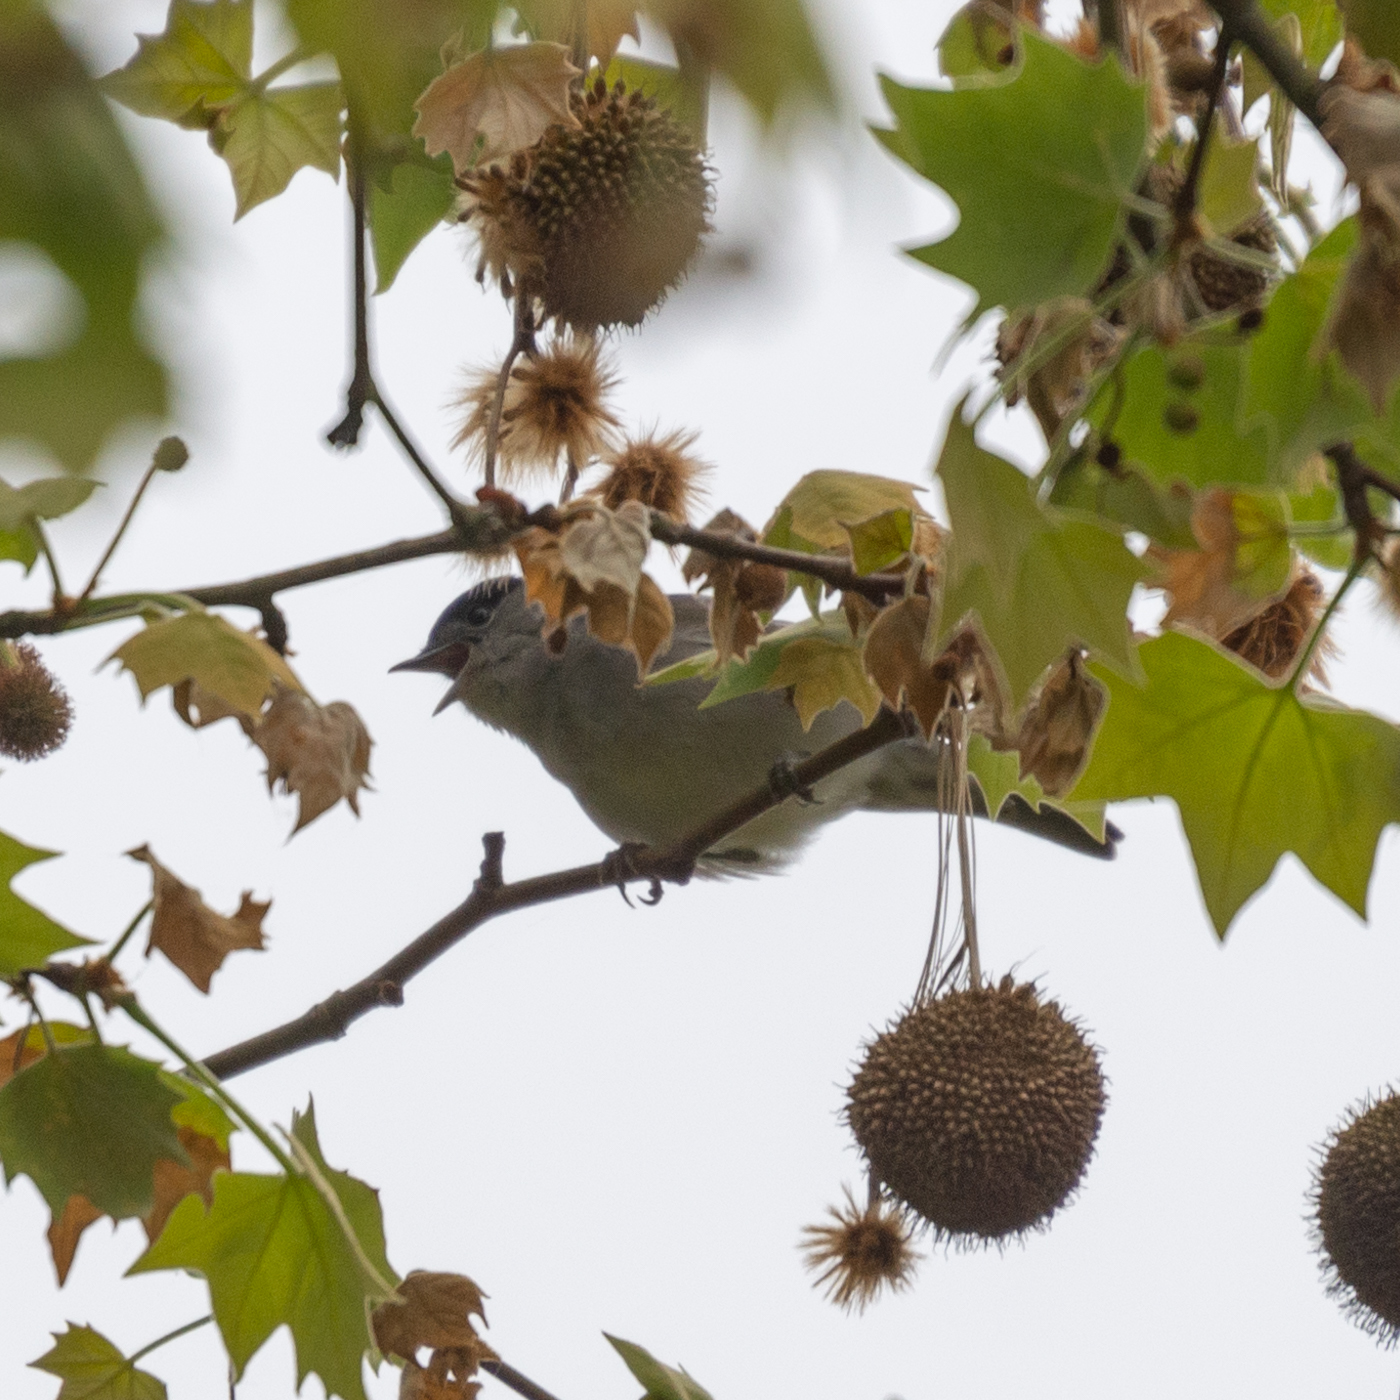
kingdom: Animalia
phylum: Chordata
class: Aves
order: Passeriformes
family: Sylviidae
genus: Sylvia
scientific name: Sylvia atricapilla
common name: Eurasian blackcap
